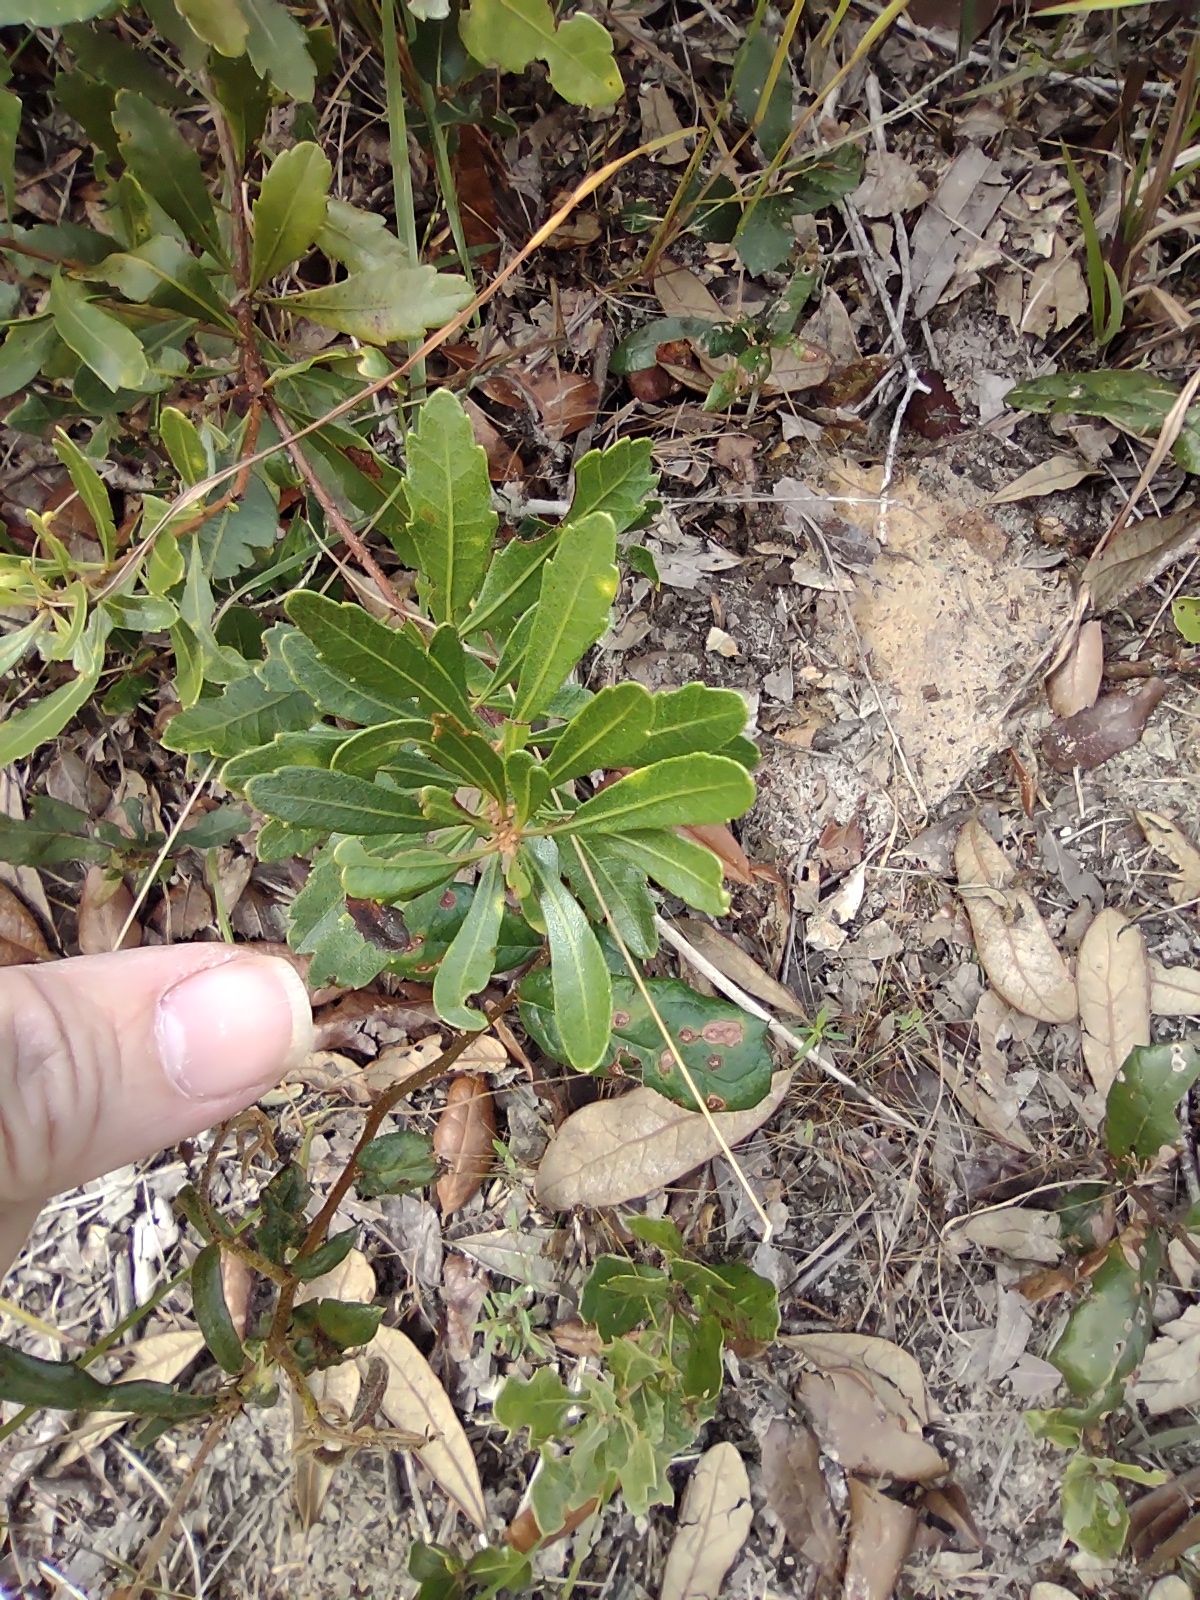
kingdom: Plantae
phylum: Tracheophyta
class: Magnoliopsida
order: Fagales
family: Myricaceae
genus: Morella
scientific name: Morella cerifera
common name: Wax myrtle
